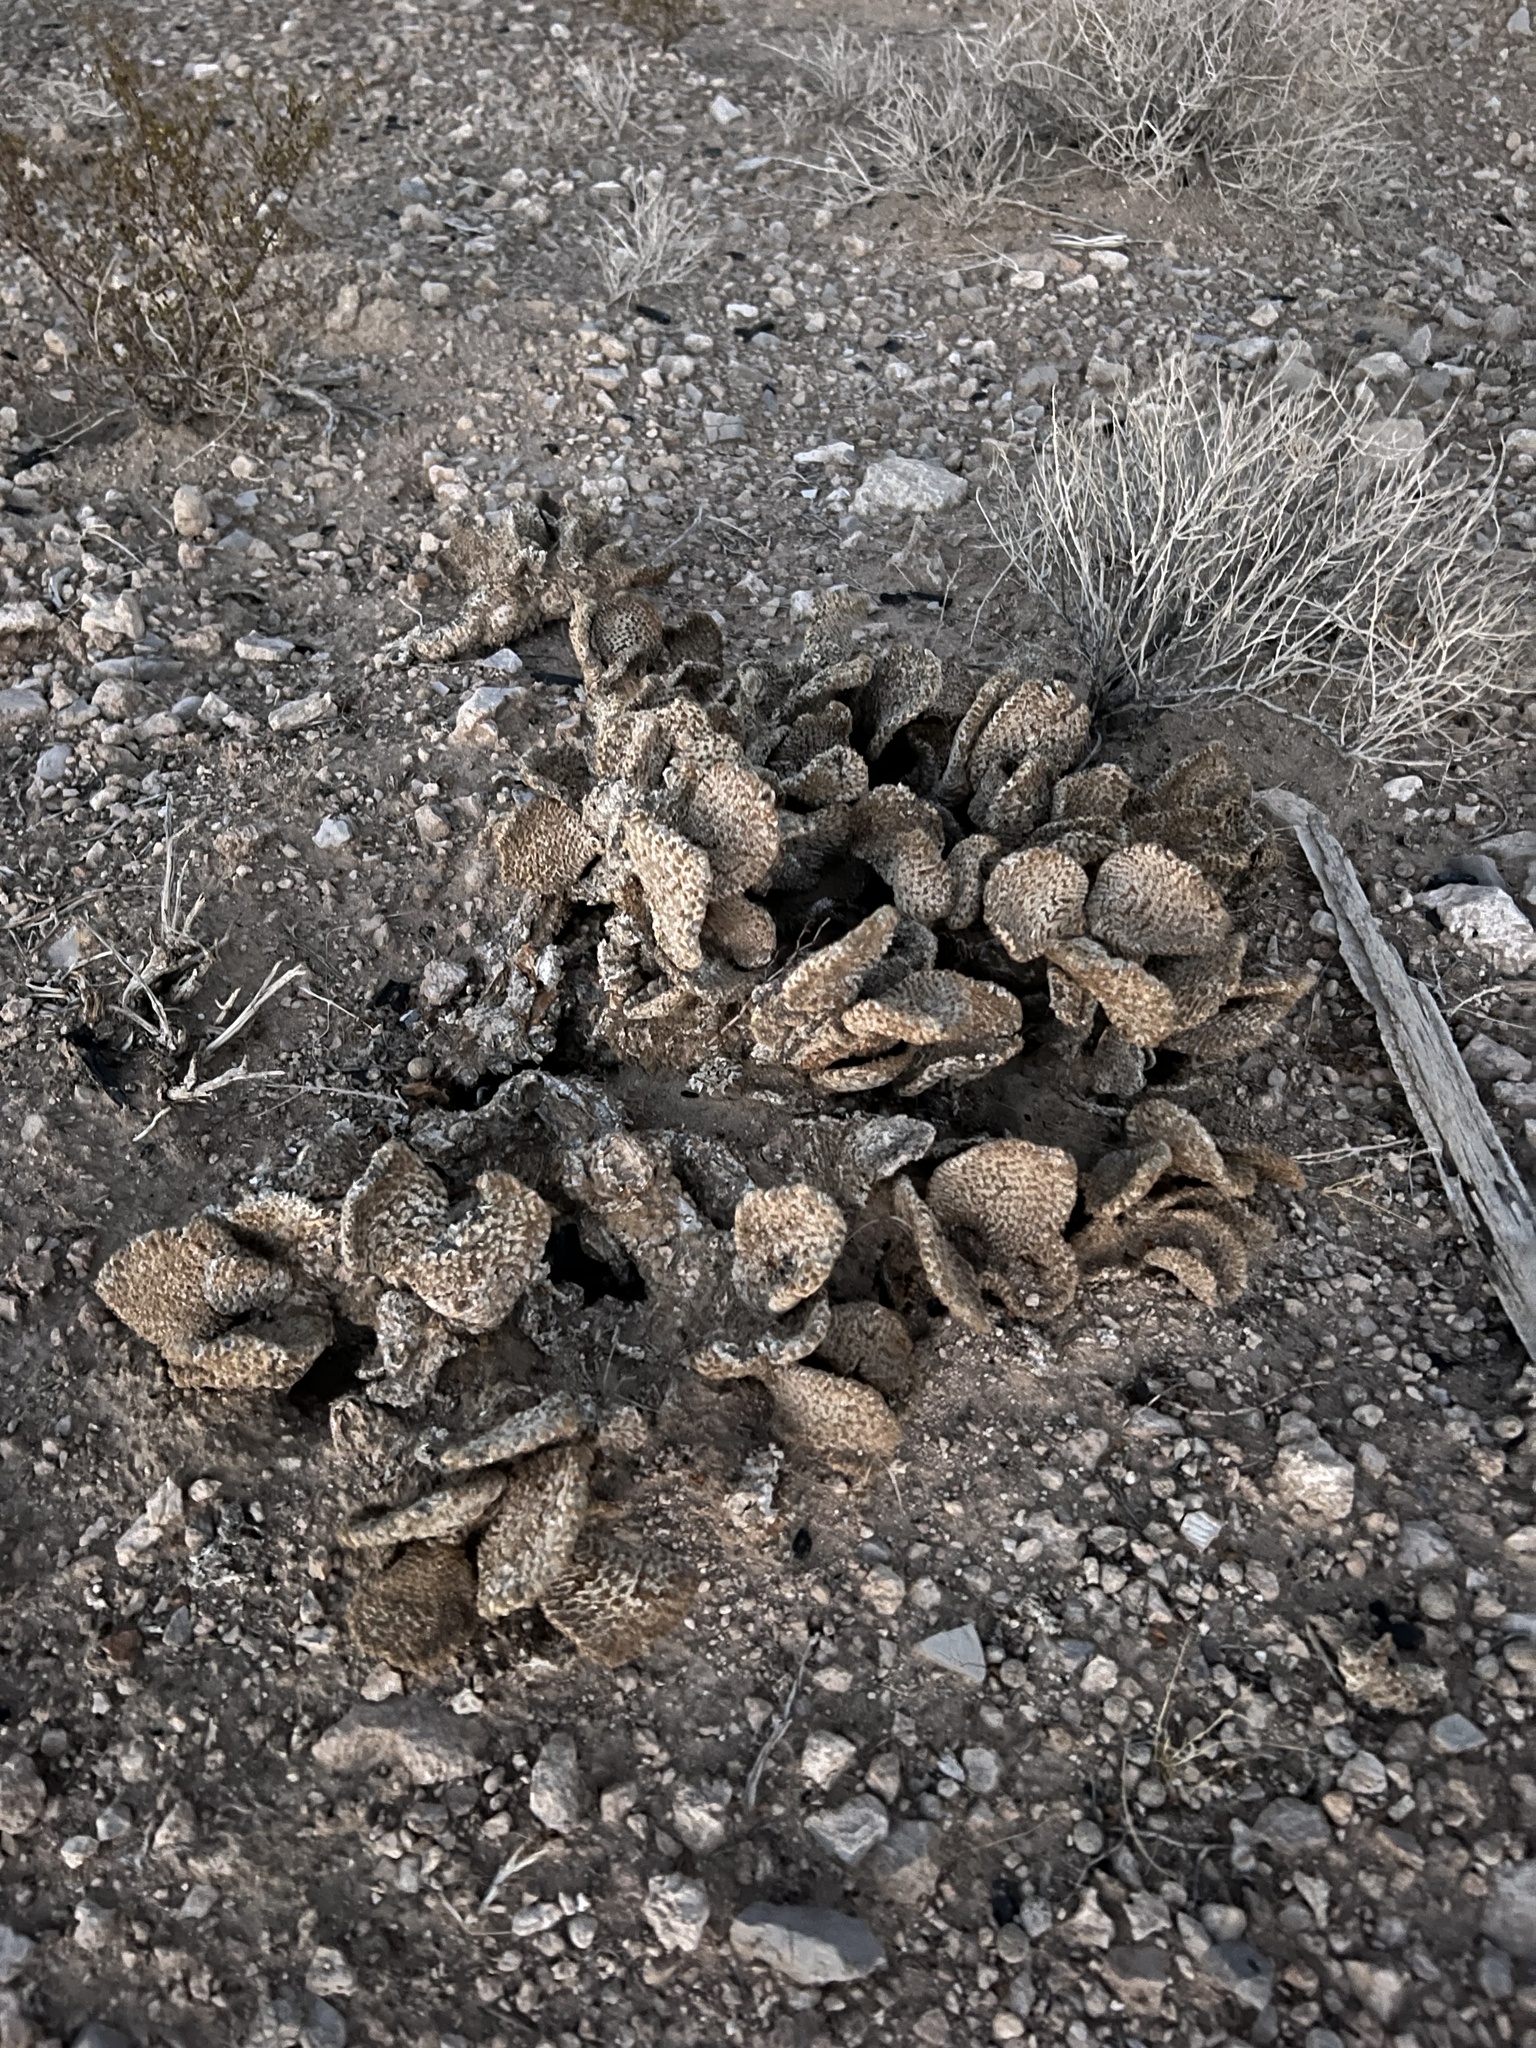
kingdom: Plantae
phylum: Tracheophyta
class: Magnoliopsida
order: Caryophyllales
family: Cactaceae
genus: Opuntia
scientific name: Opuntia basilaris
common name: Beavertail prickly-pear
